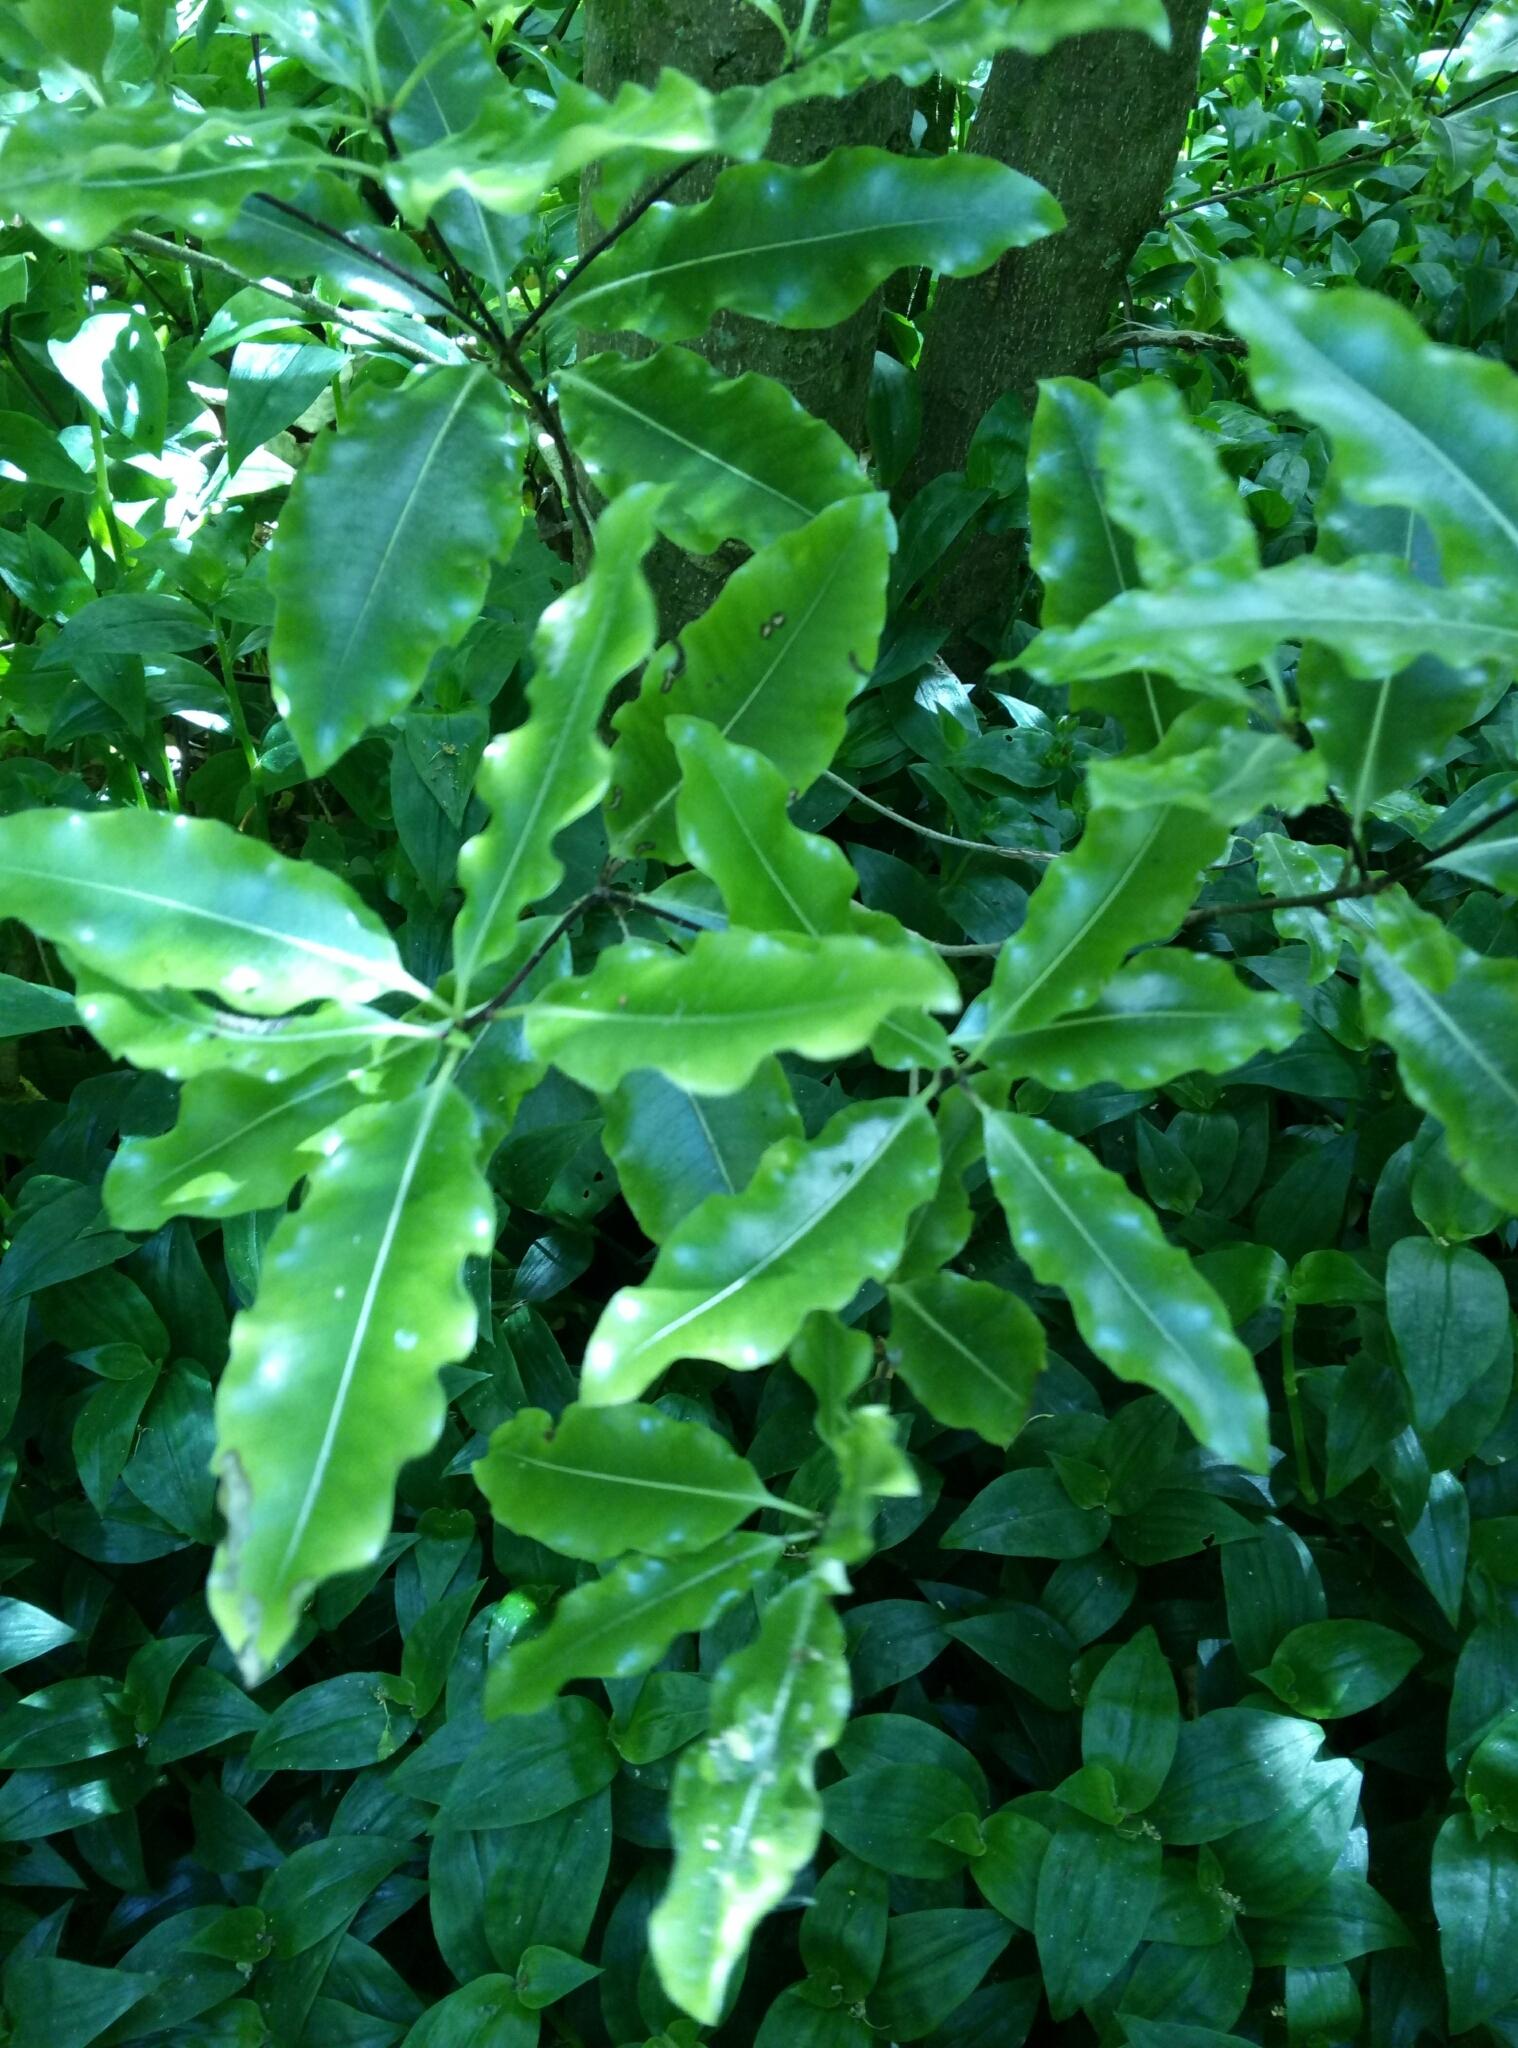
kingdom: Plantae
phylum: Tracheophyta
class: Magnoliopsida
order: Apiales
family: Pittosporaceae
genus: Pittosporum
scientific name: Pittosporum eugenioides
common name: Lemonwood
